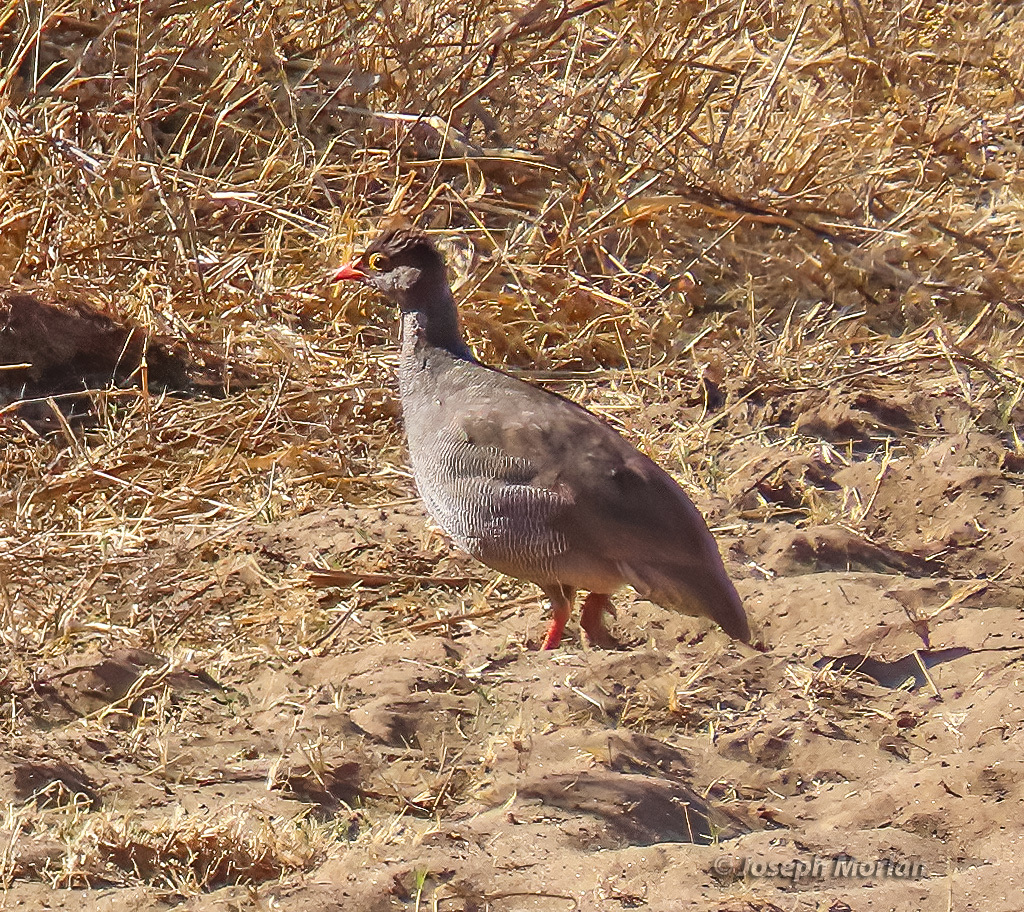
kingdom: Animalia
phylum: Chordata
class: Aves
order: Galliformes
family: Phasianidae
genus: Pternistis
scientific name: Pternistis adspersus
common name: Red-billed spurfowl
